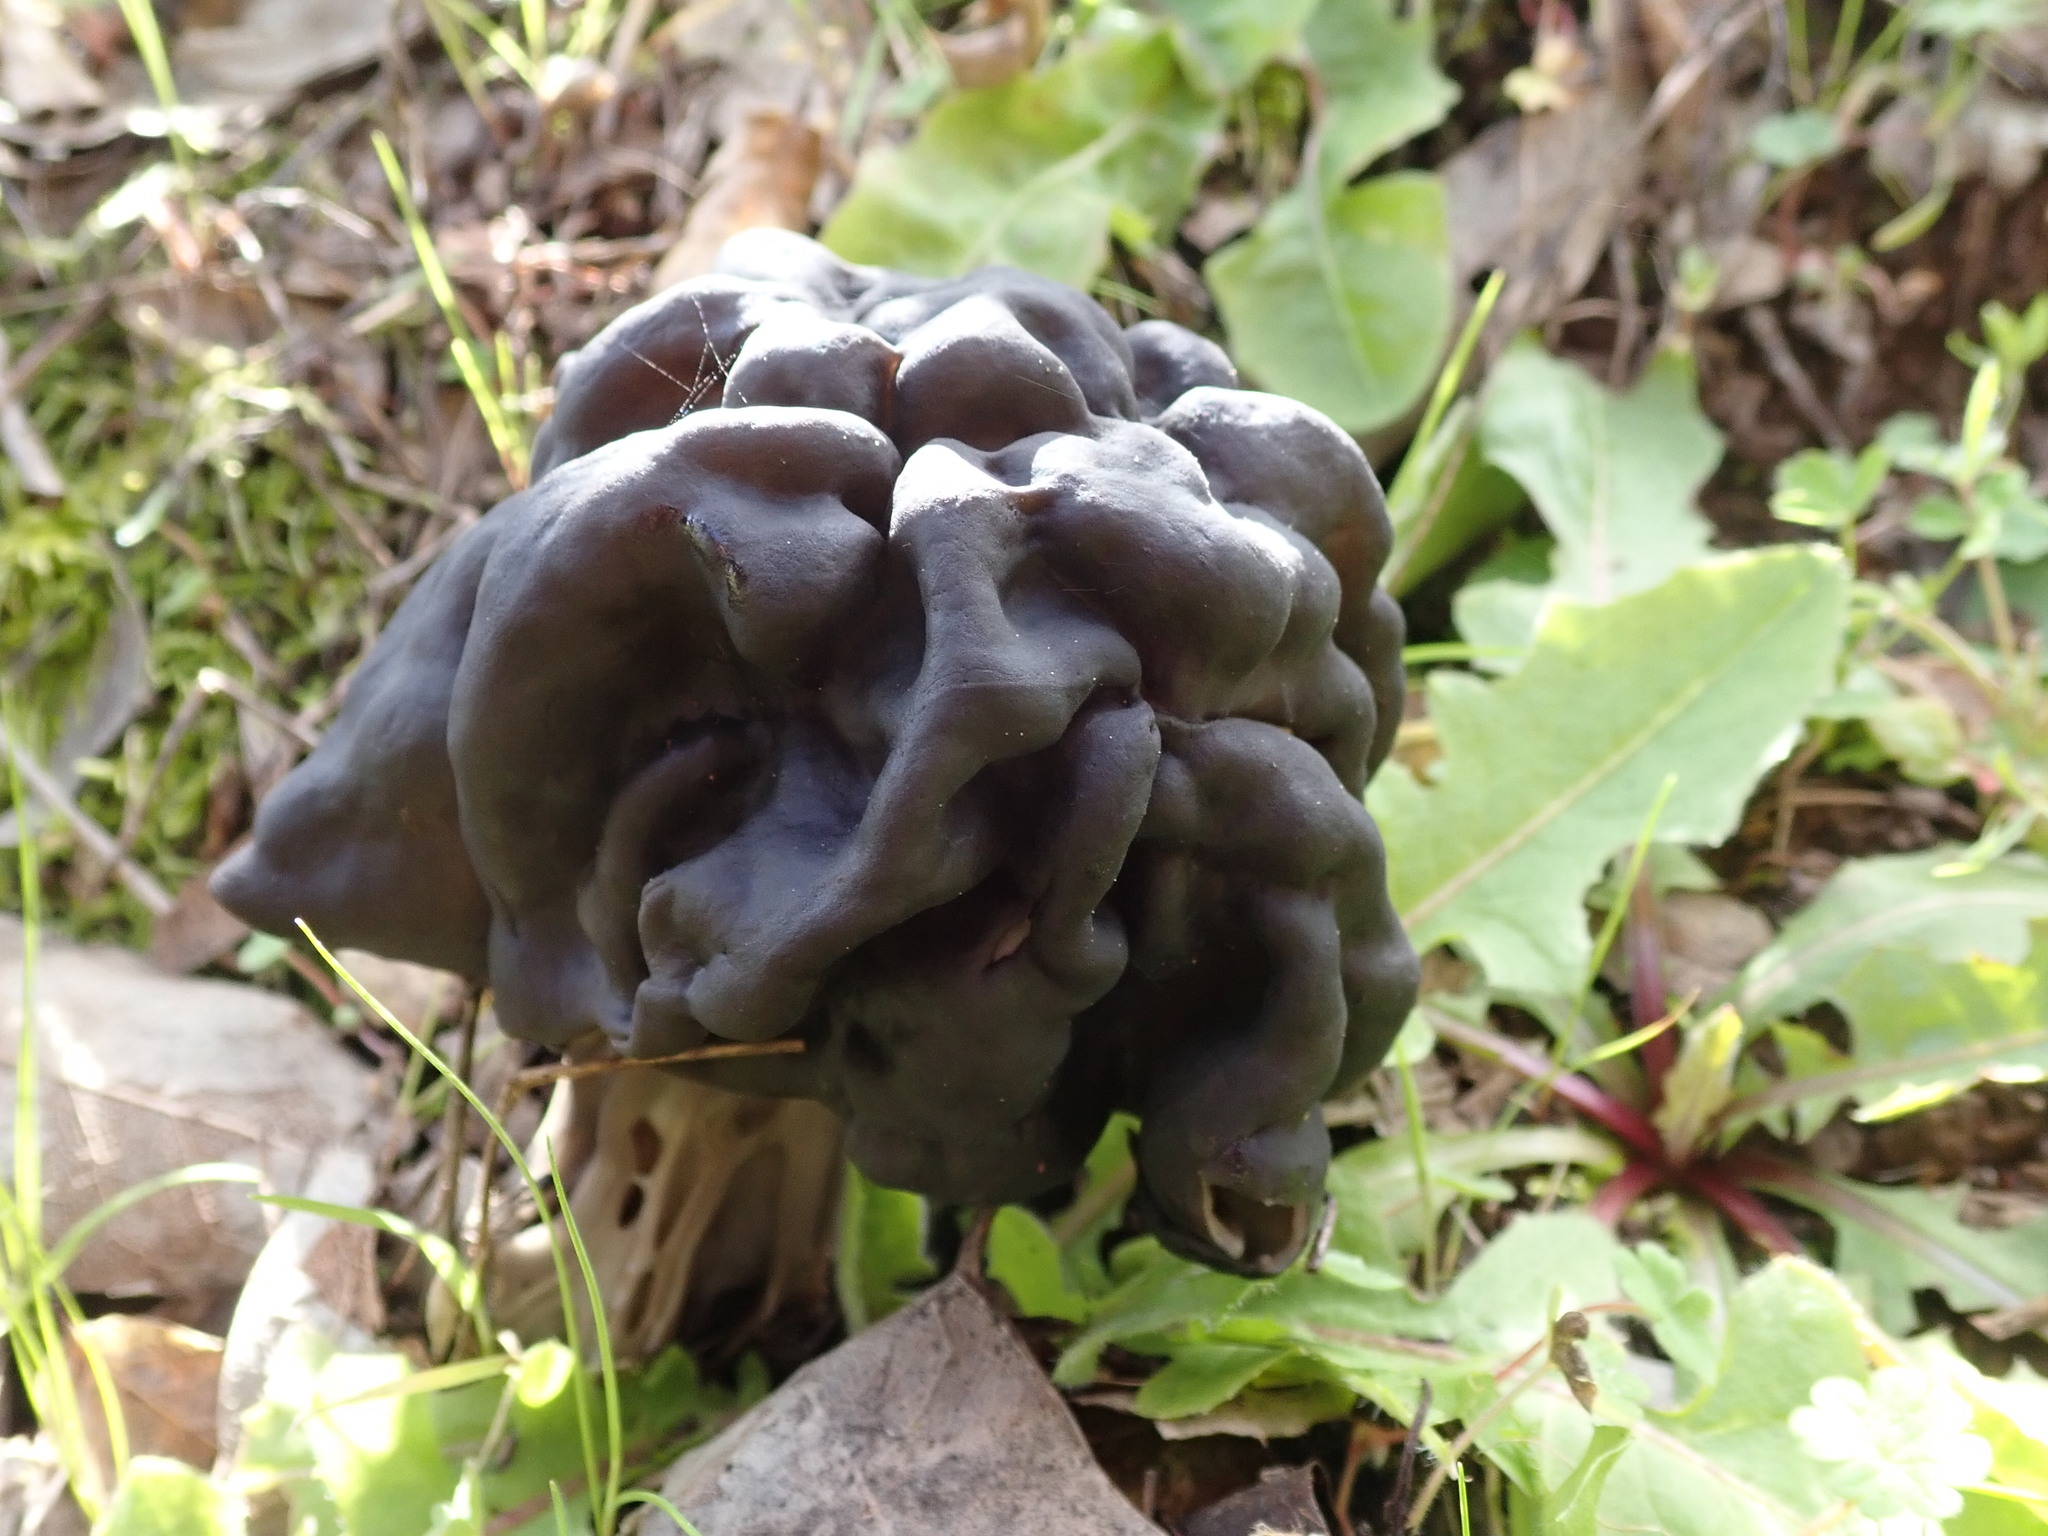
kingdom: Fungi
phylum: Ascomycota
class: Pezizomycetes
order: Pezizales
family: Helvellaceae
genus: Helvella
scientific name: Helvella dryophila
